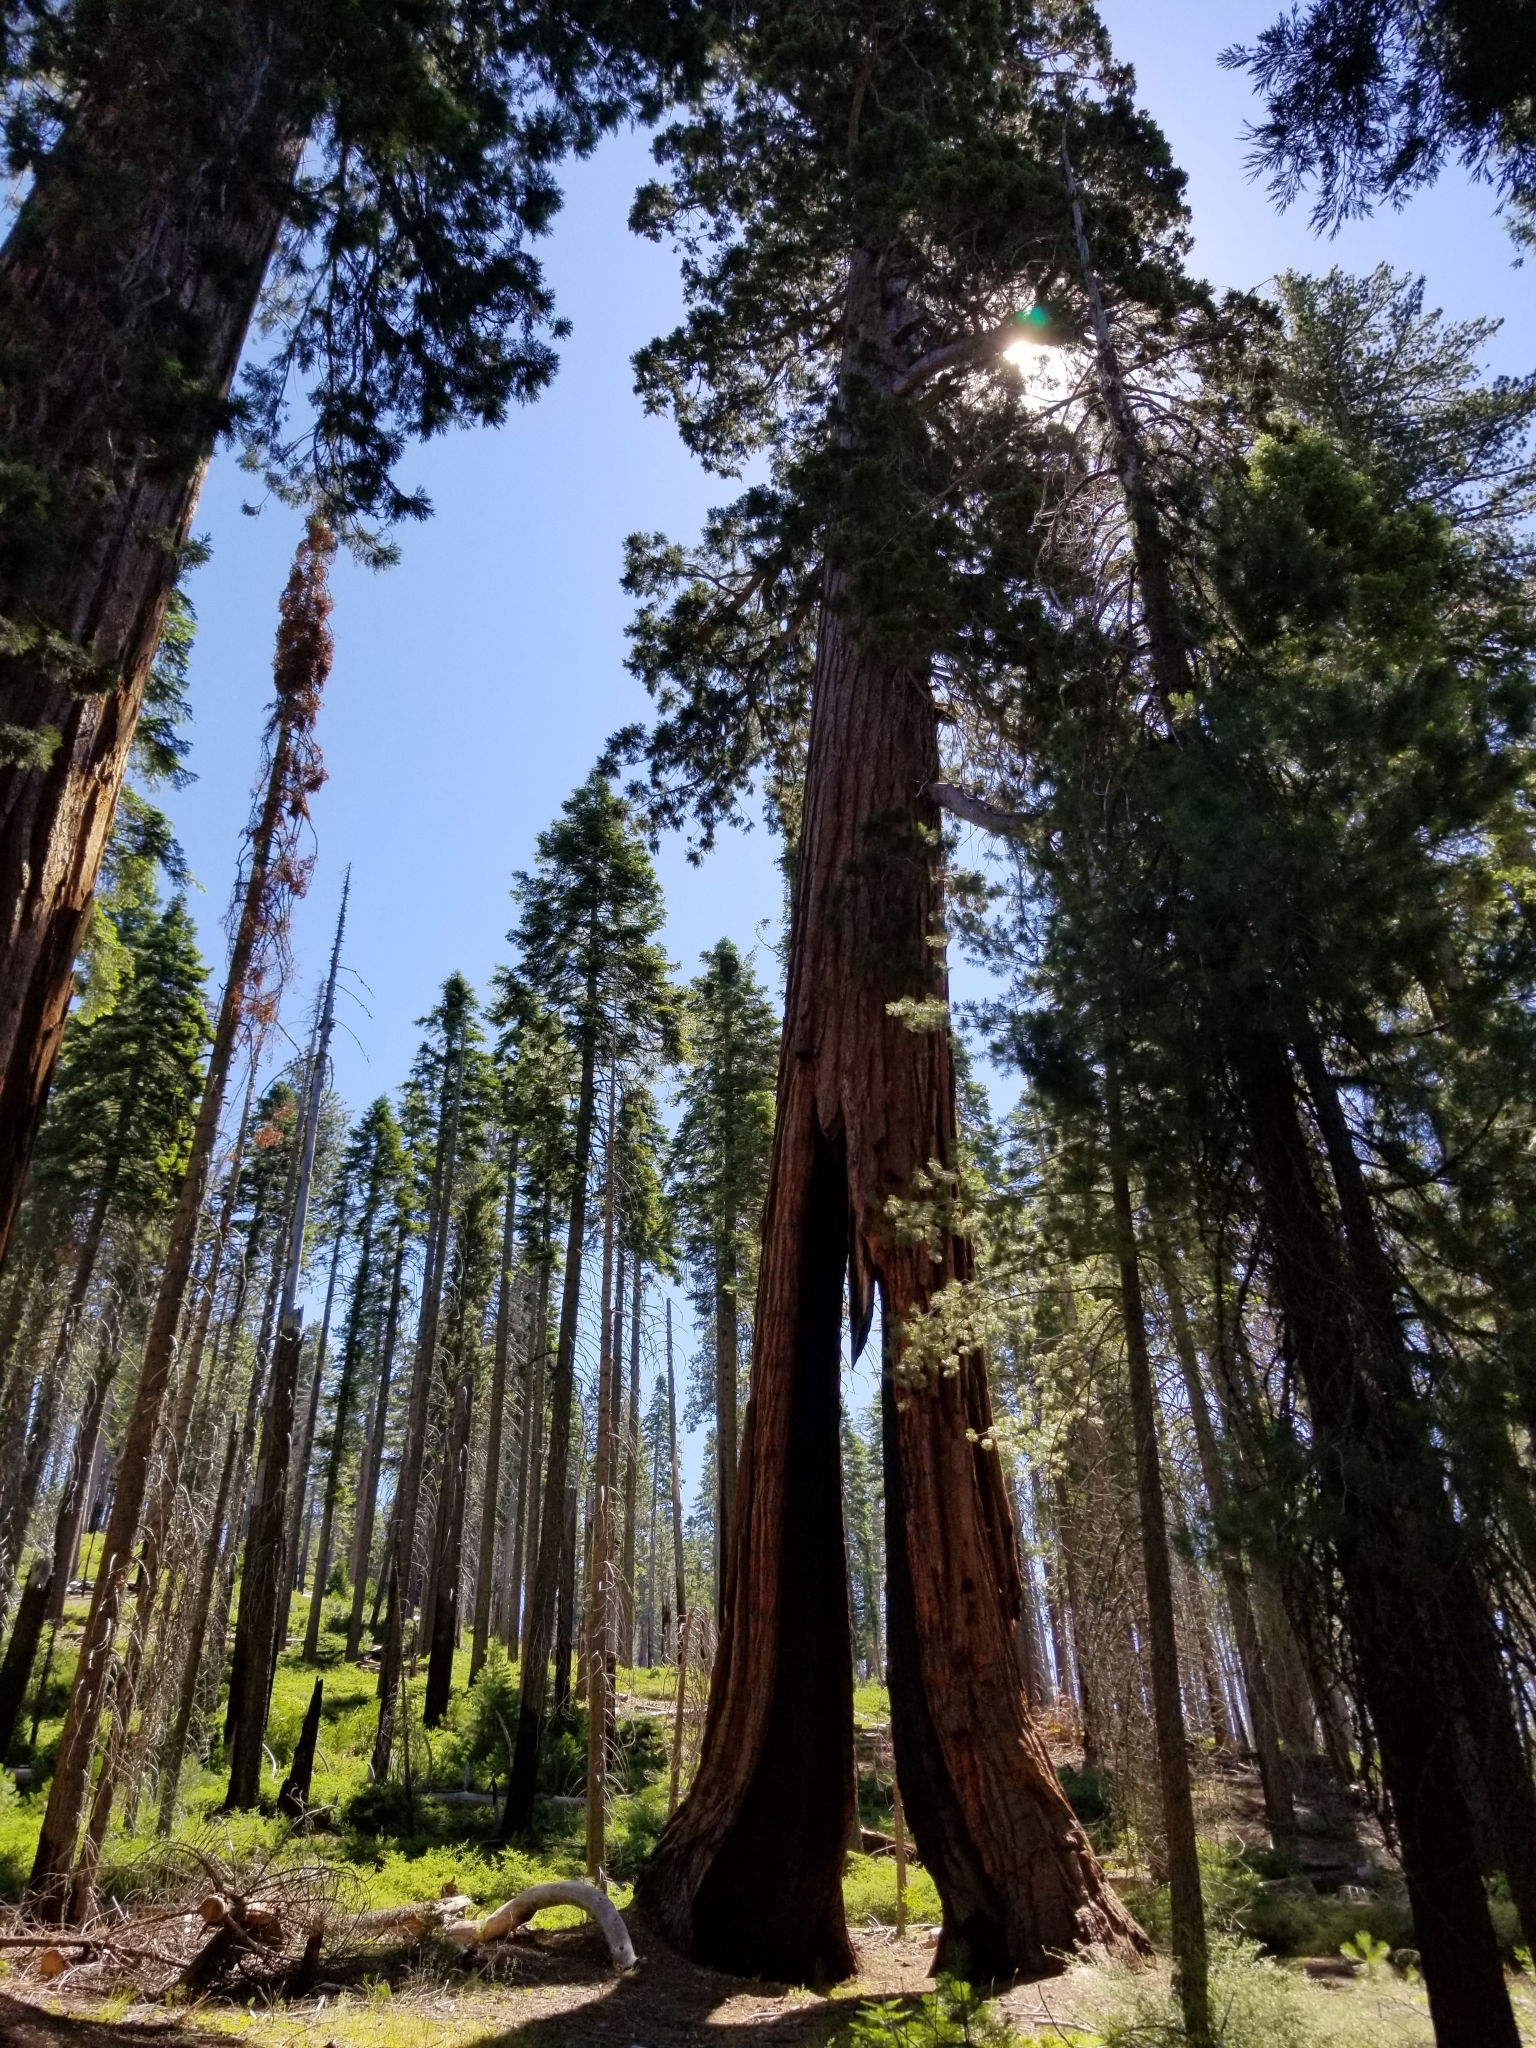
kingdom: Plantae
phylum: Tracheophyta
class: Pinopsida
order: Pinales
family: Cupressaceae
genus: Sequoiadendron
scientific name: Sequoiadendron giganteum
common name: Wellingtonia
